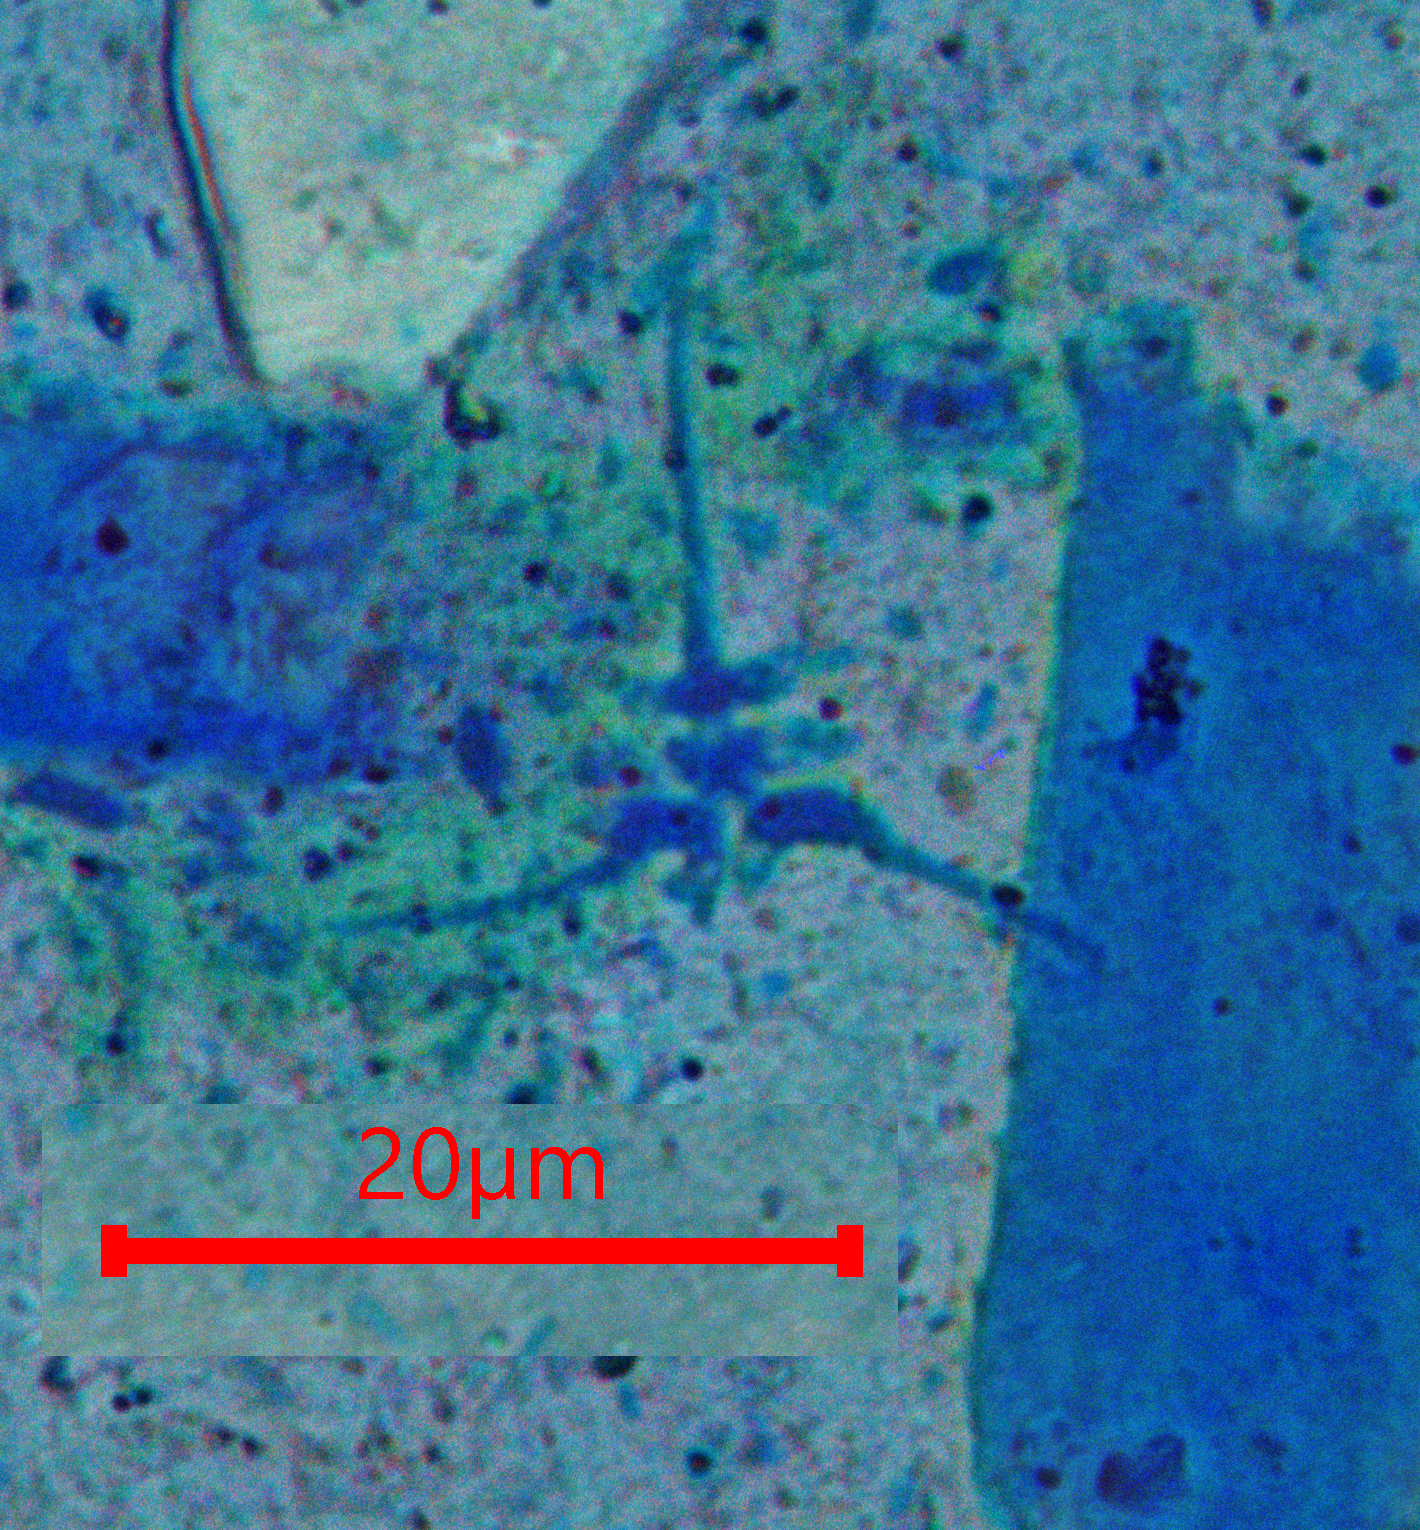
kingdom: Fungi
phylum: Ascomycota
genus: Lateriramulosa
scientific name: Lateriramulosa uniinflata
